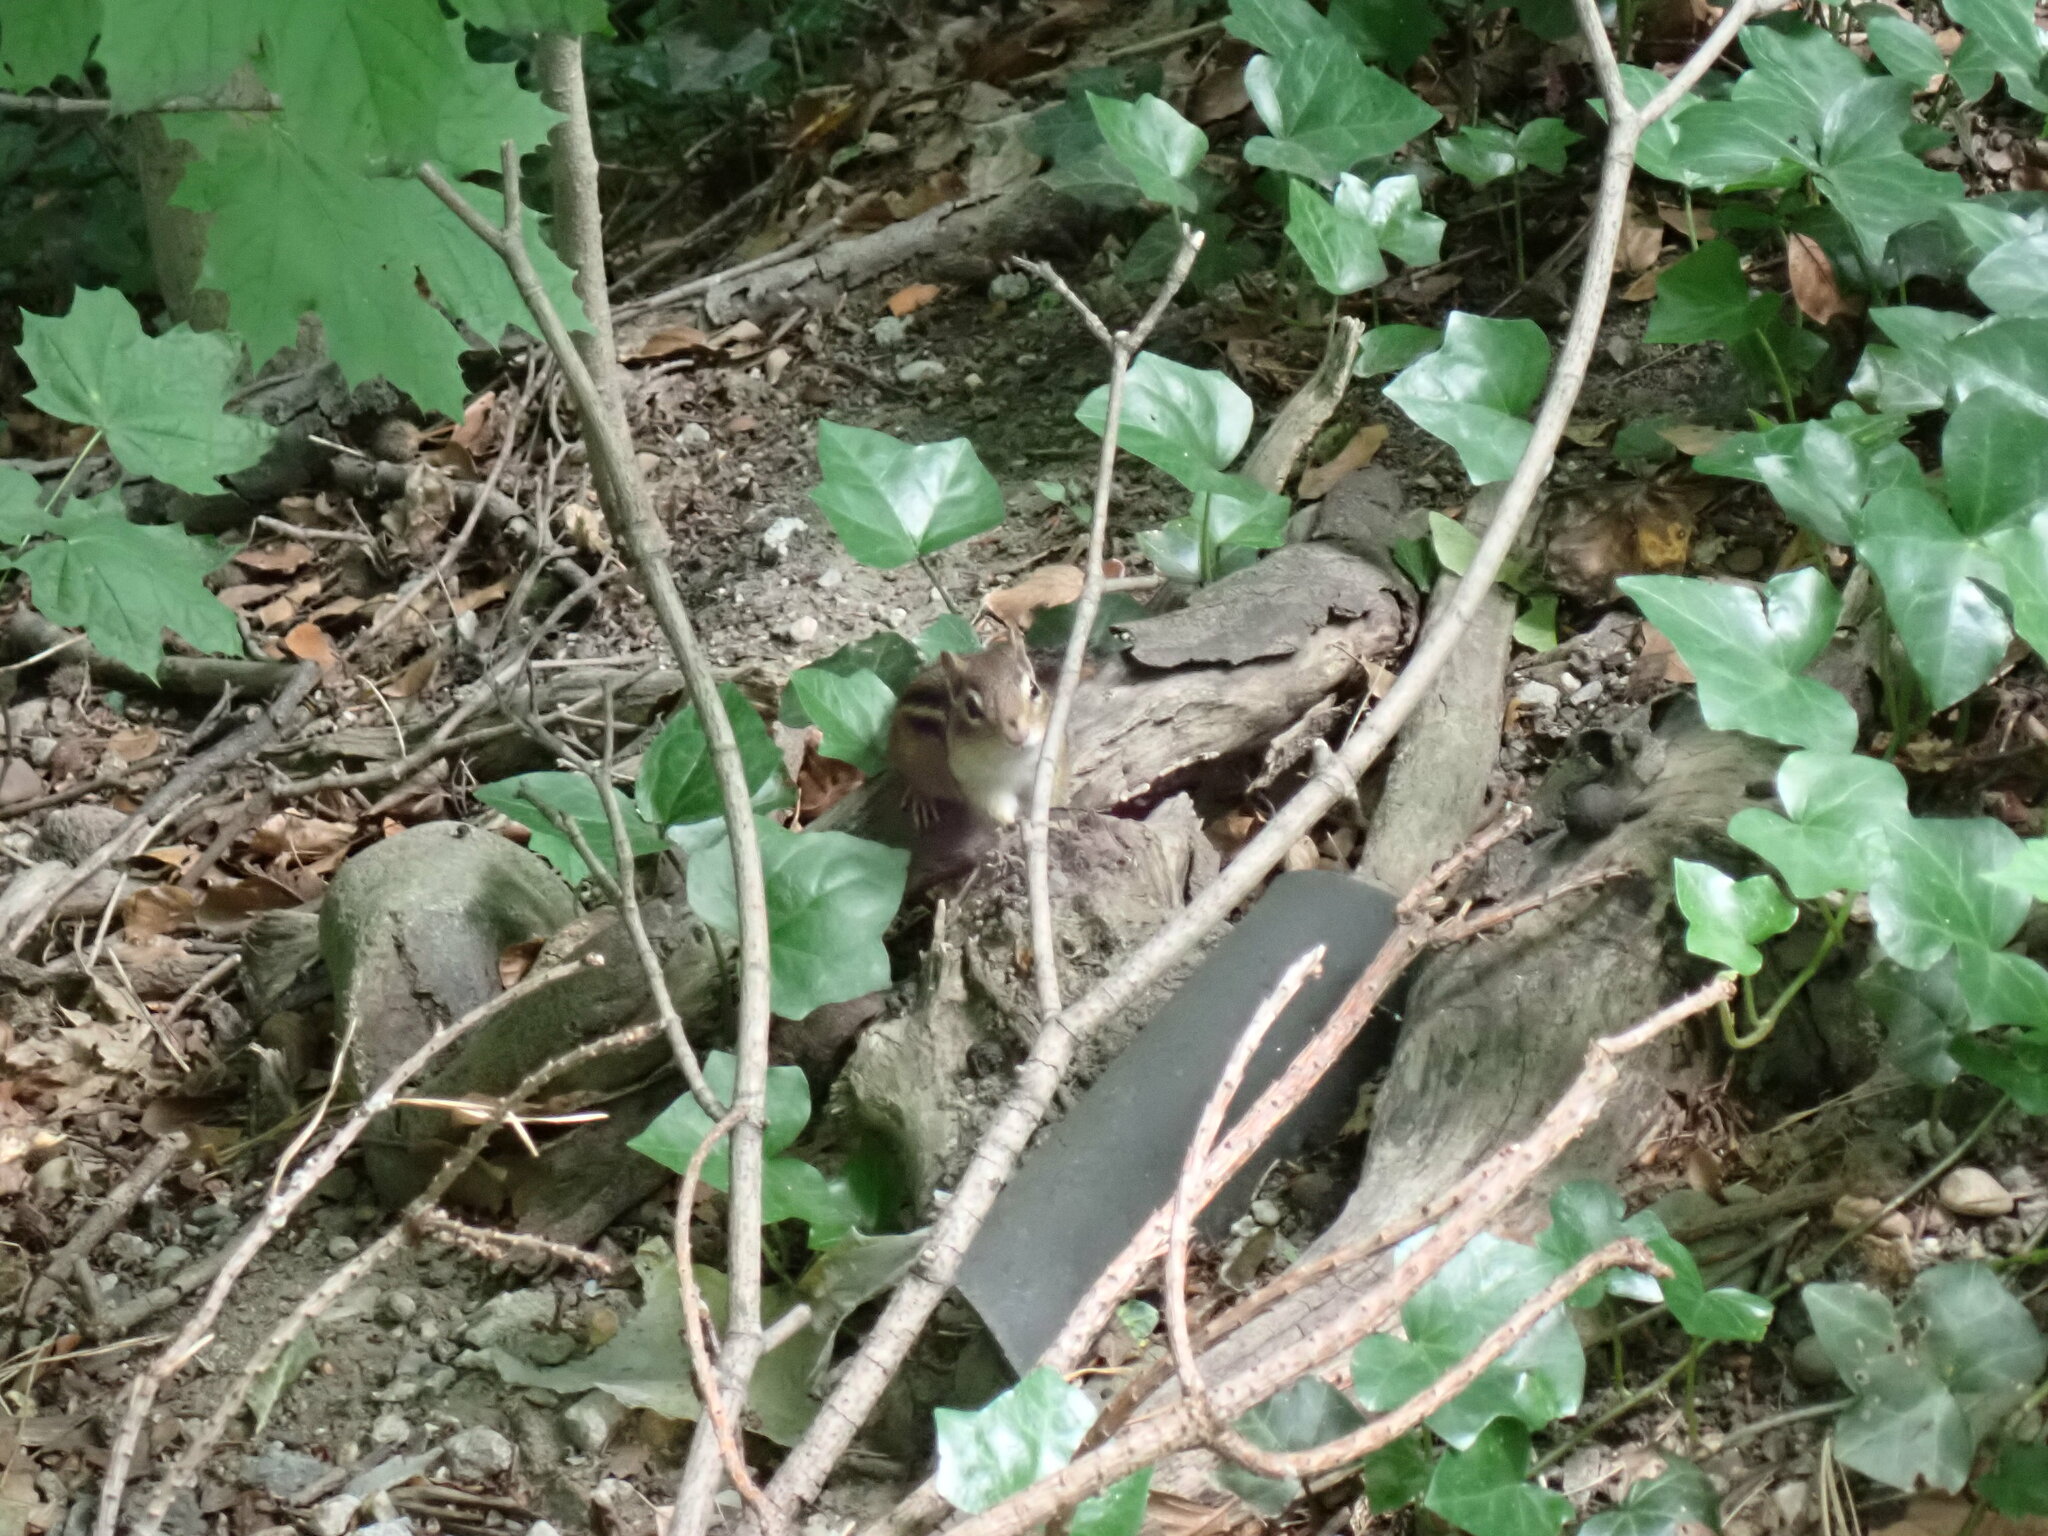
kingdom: Animalia
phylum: Chordata
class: Mammalia
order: Rodentia
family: Sciuridae
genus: Tamias
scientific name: Tamias striatus
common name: Eastern chipmunk
